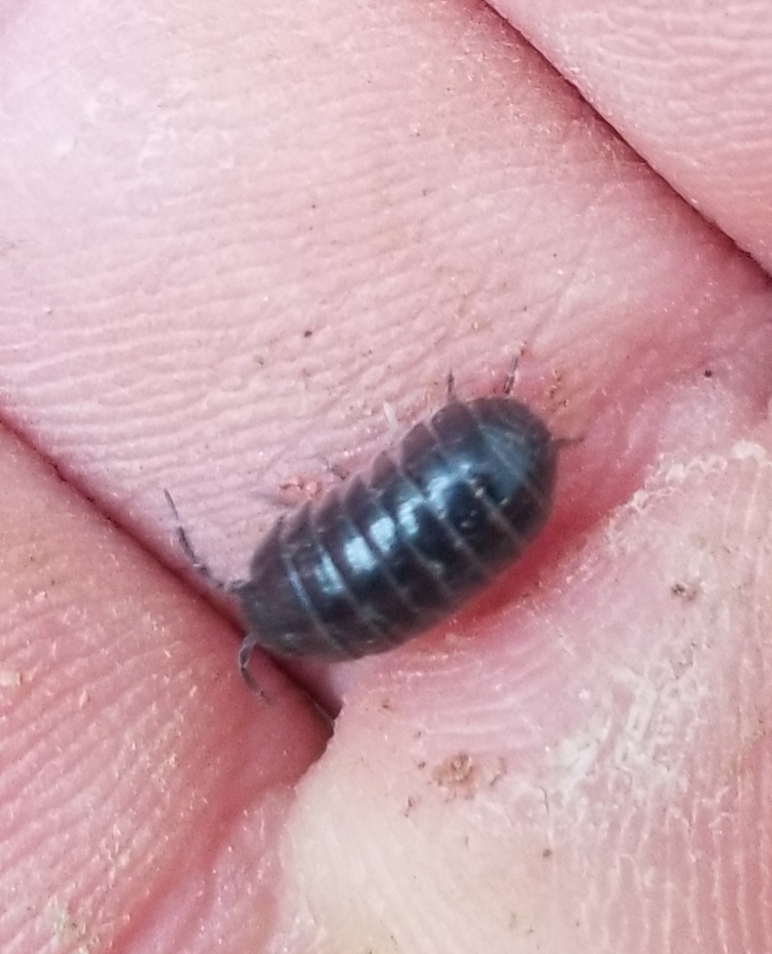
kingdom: Animalia
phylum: Arthropoda
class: Malacostraca
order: Isopoda
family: Armadillidiidae
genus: Armadillidium
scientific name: Armadillidium vulgare
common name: Common pill woodlouse
